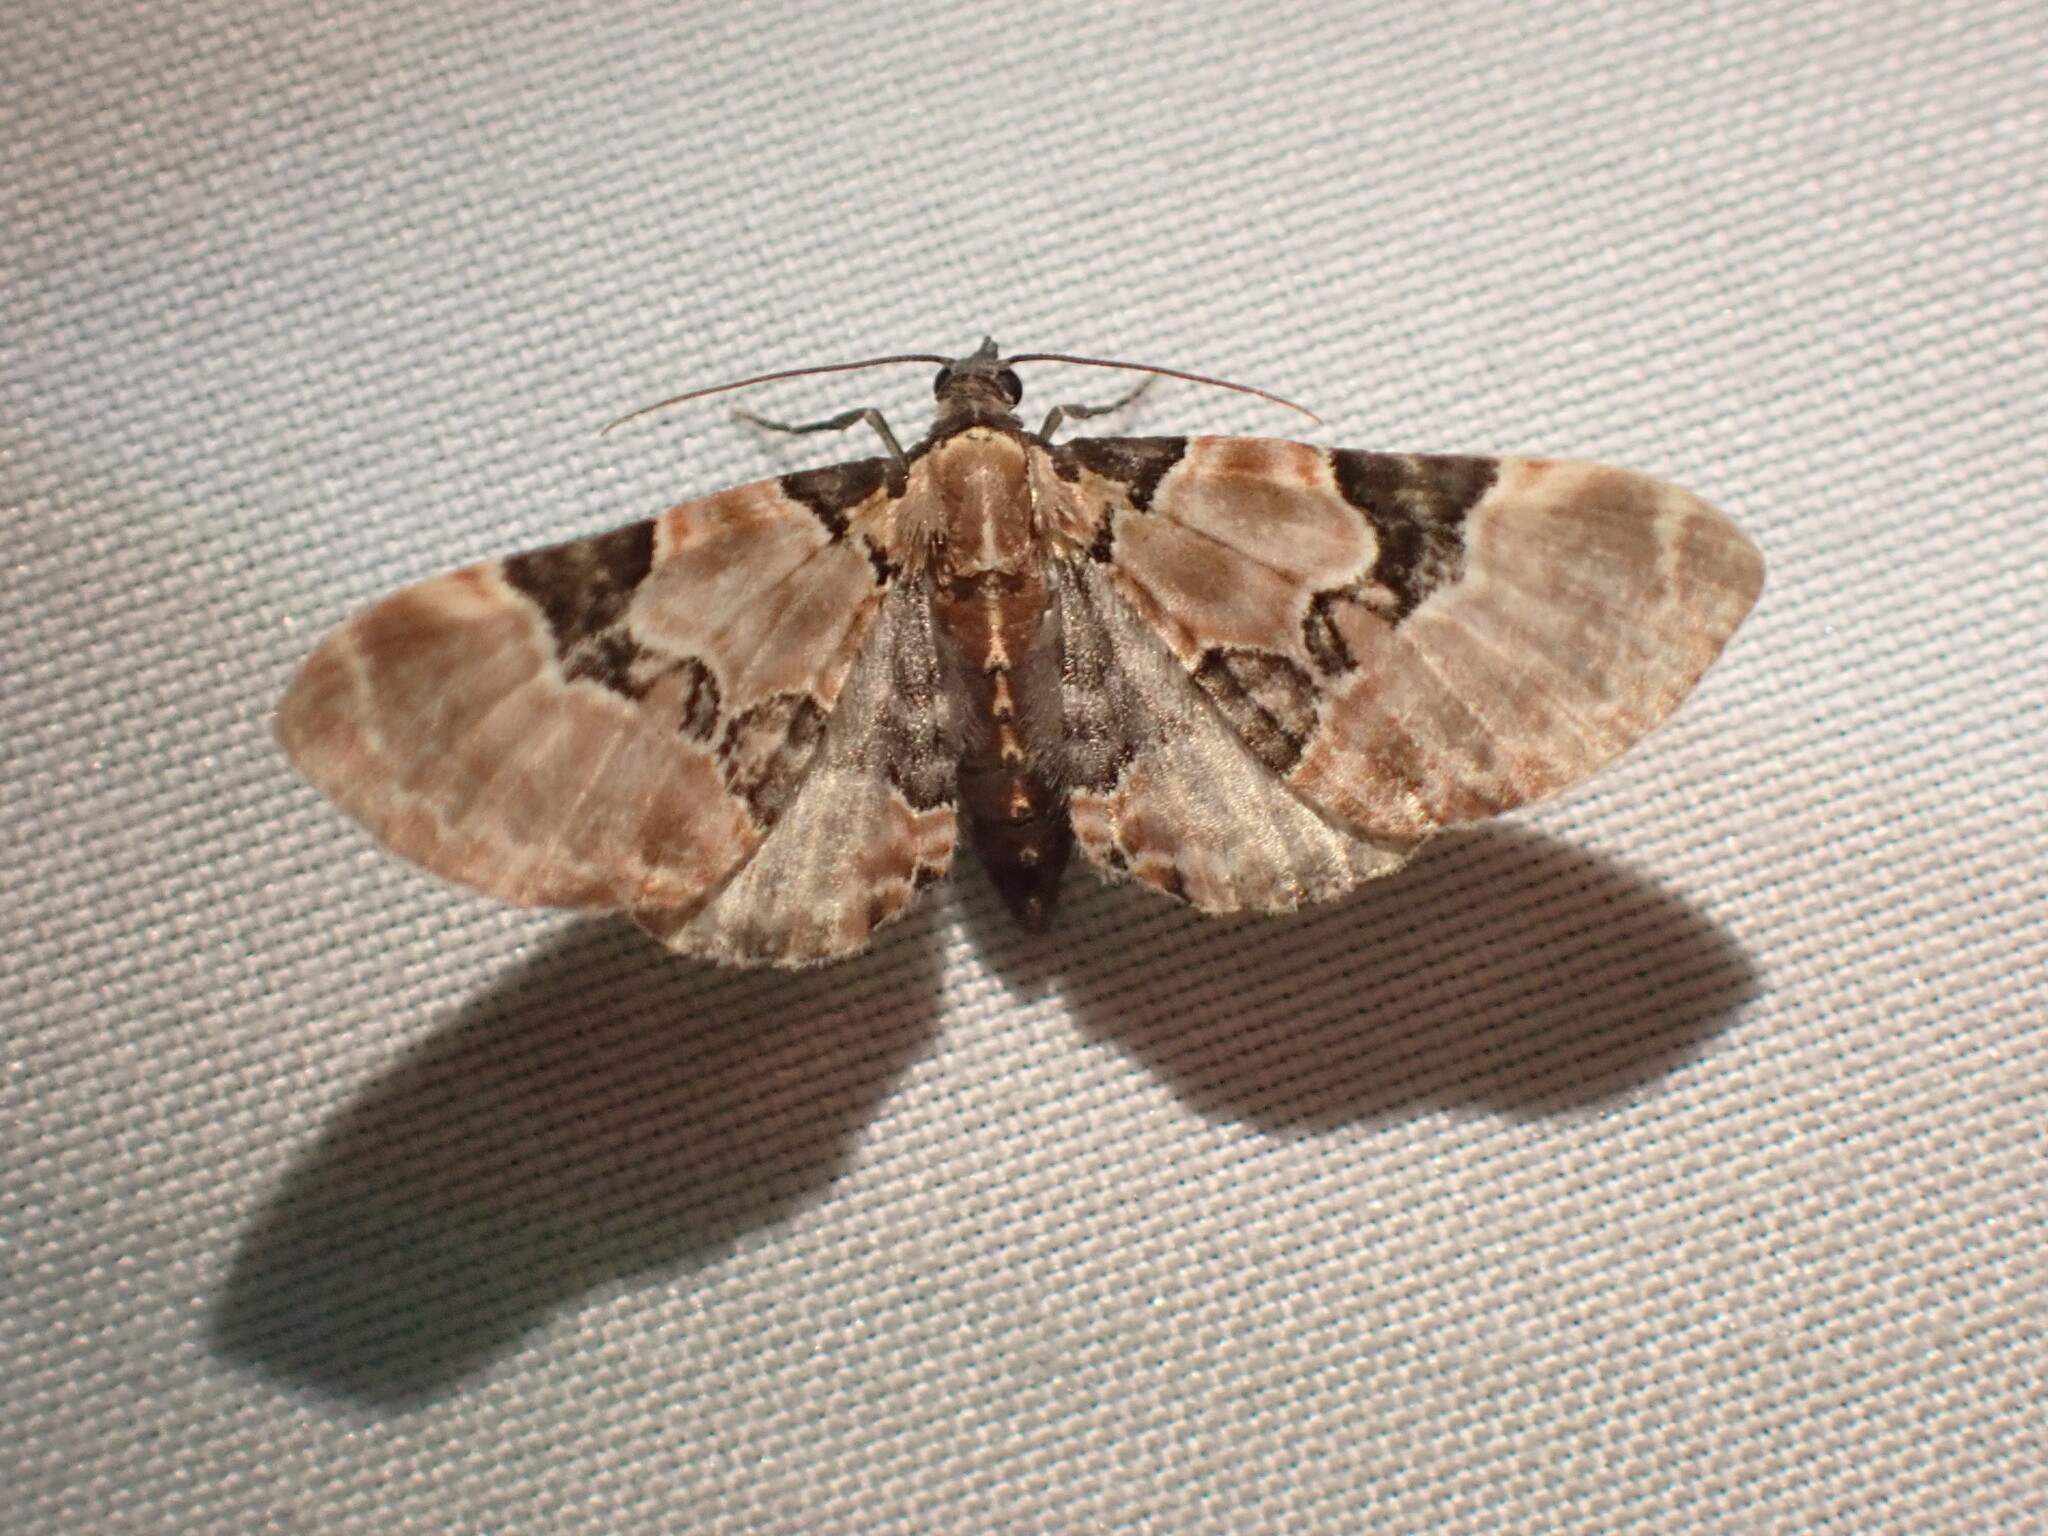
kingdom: Animalia
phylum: Arthropoda
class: Insecta
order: Lepidoptera
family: Geometridae
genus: Eupithecia
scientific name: Eupithecia stellata
